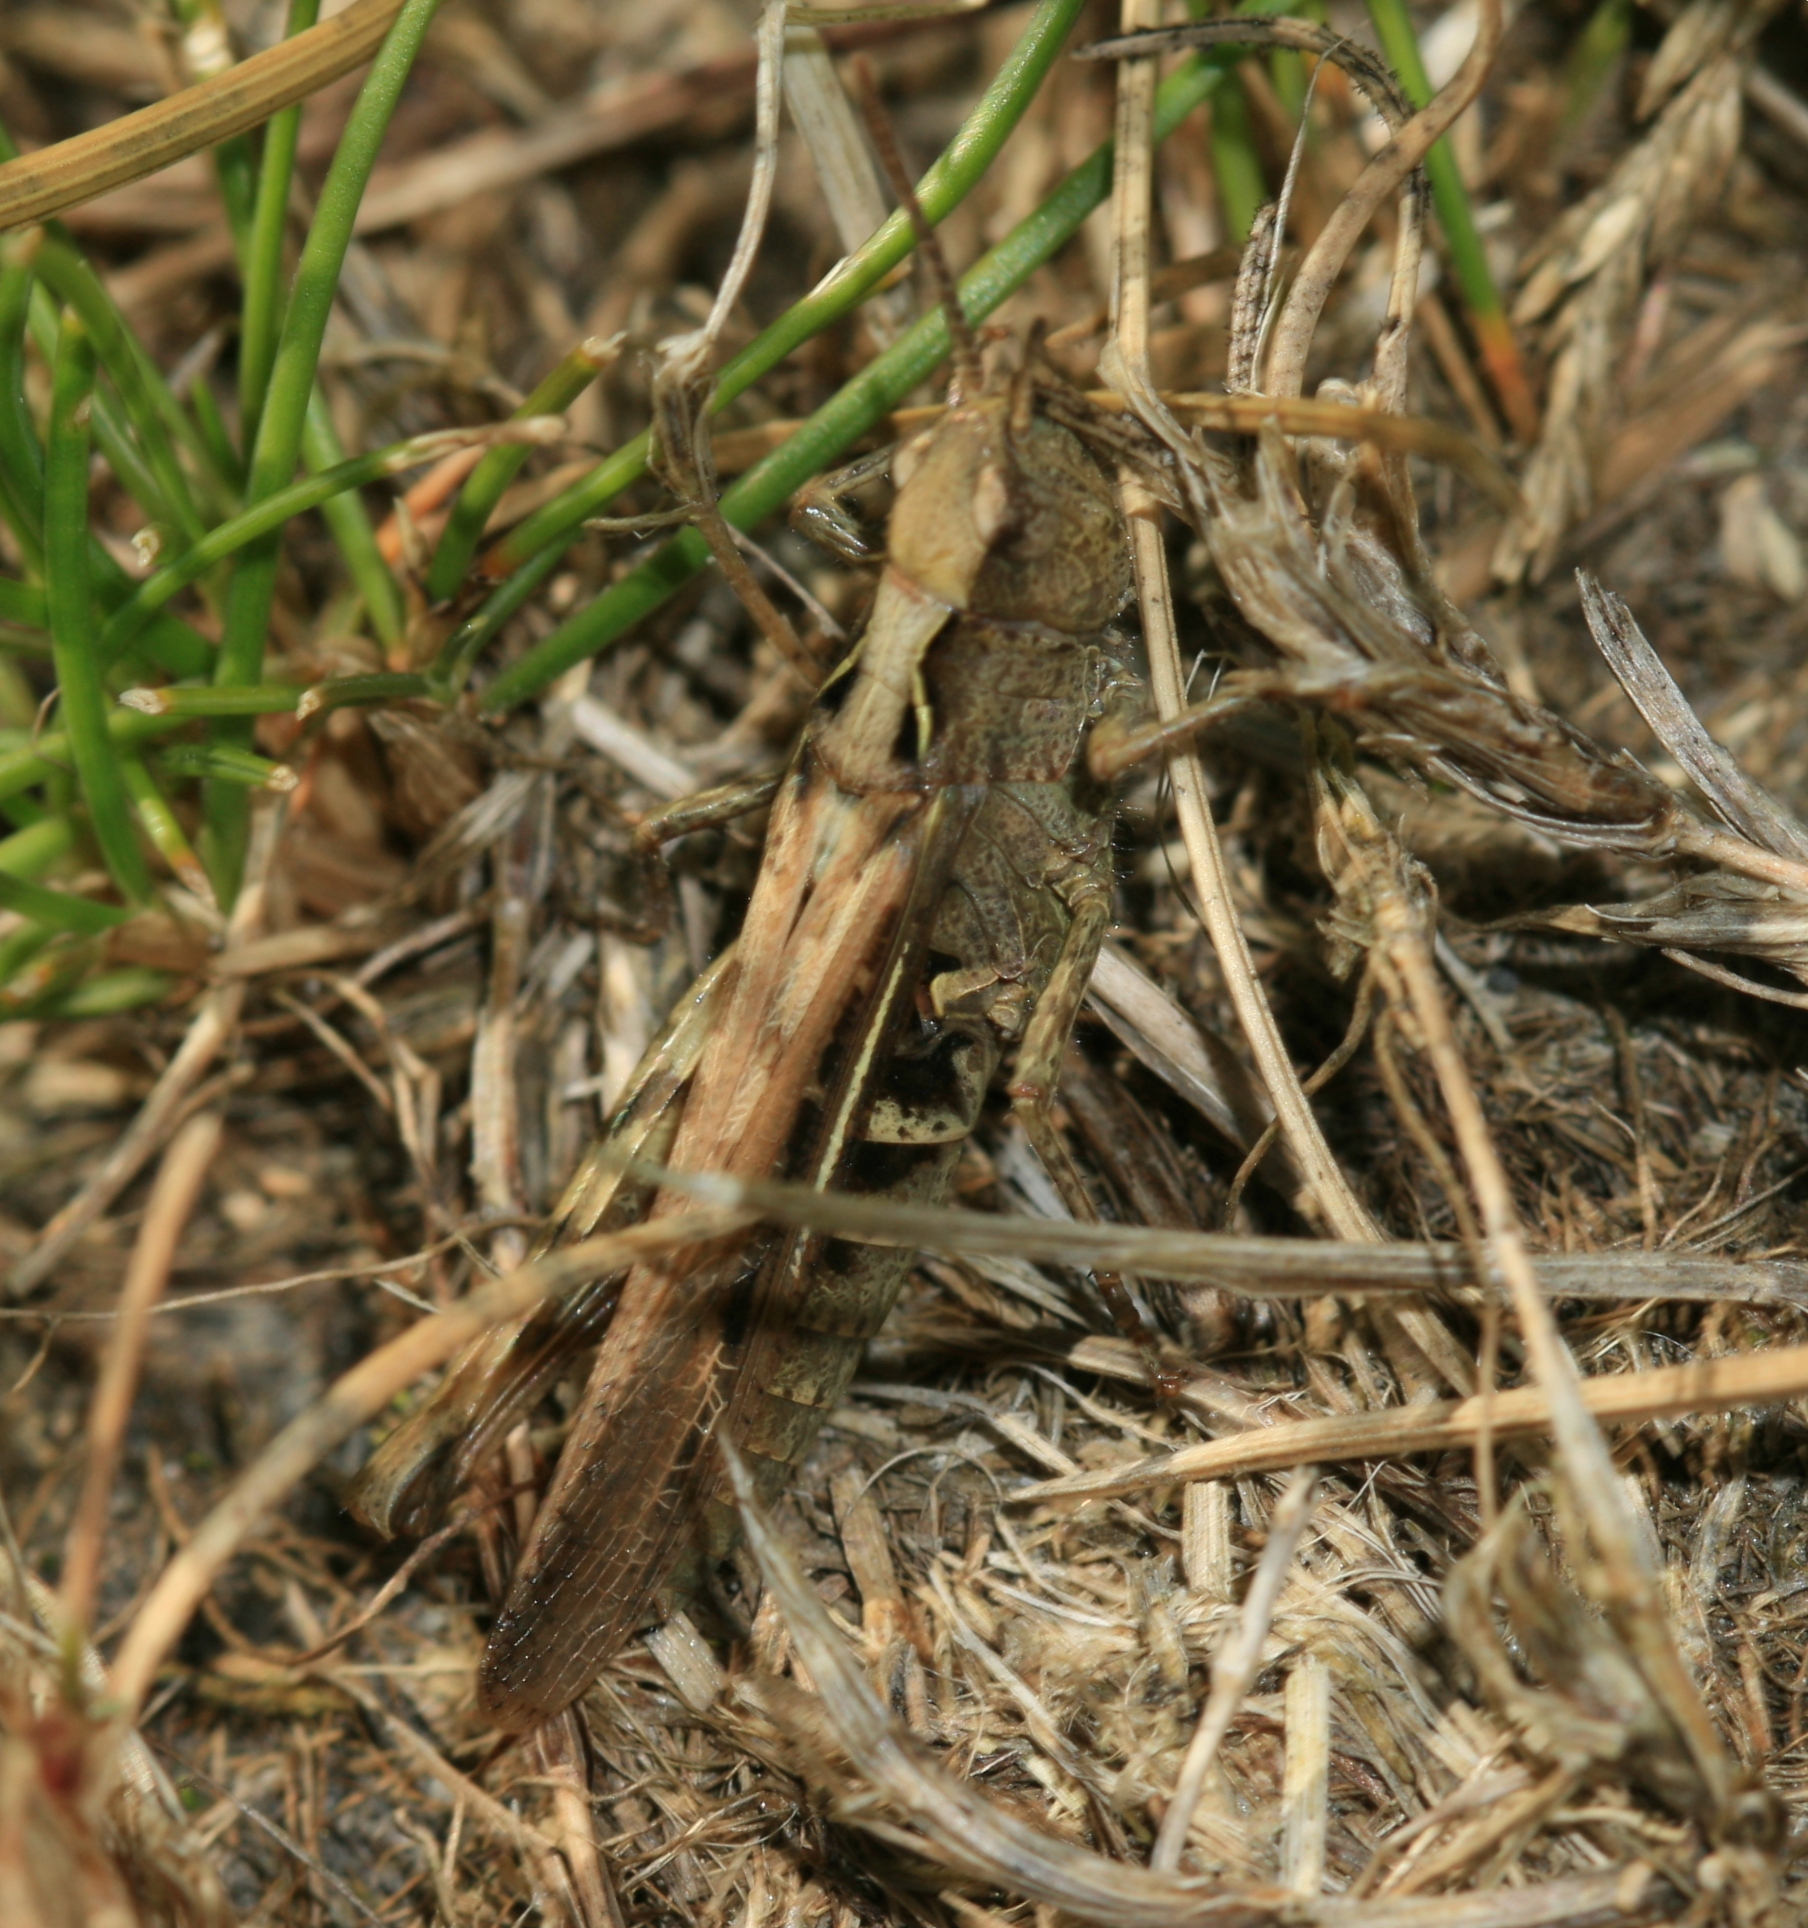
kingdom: Animalia
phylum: Arthropoda
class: Insecta
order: Orthoptera
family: Acrididae
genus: Chorthippus
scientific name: Chorthippus brunneus
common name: Field grasshopper
